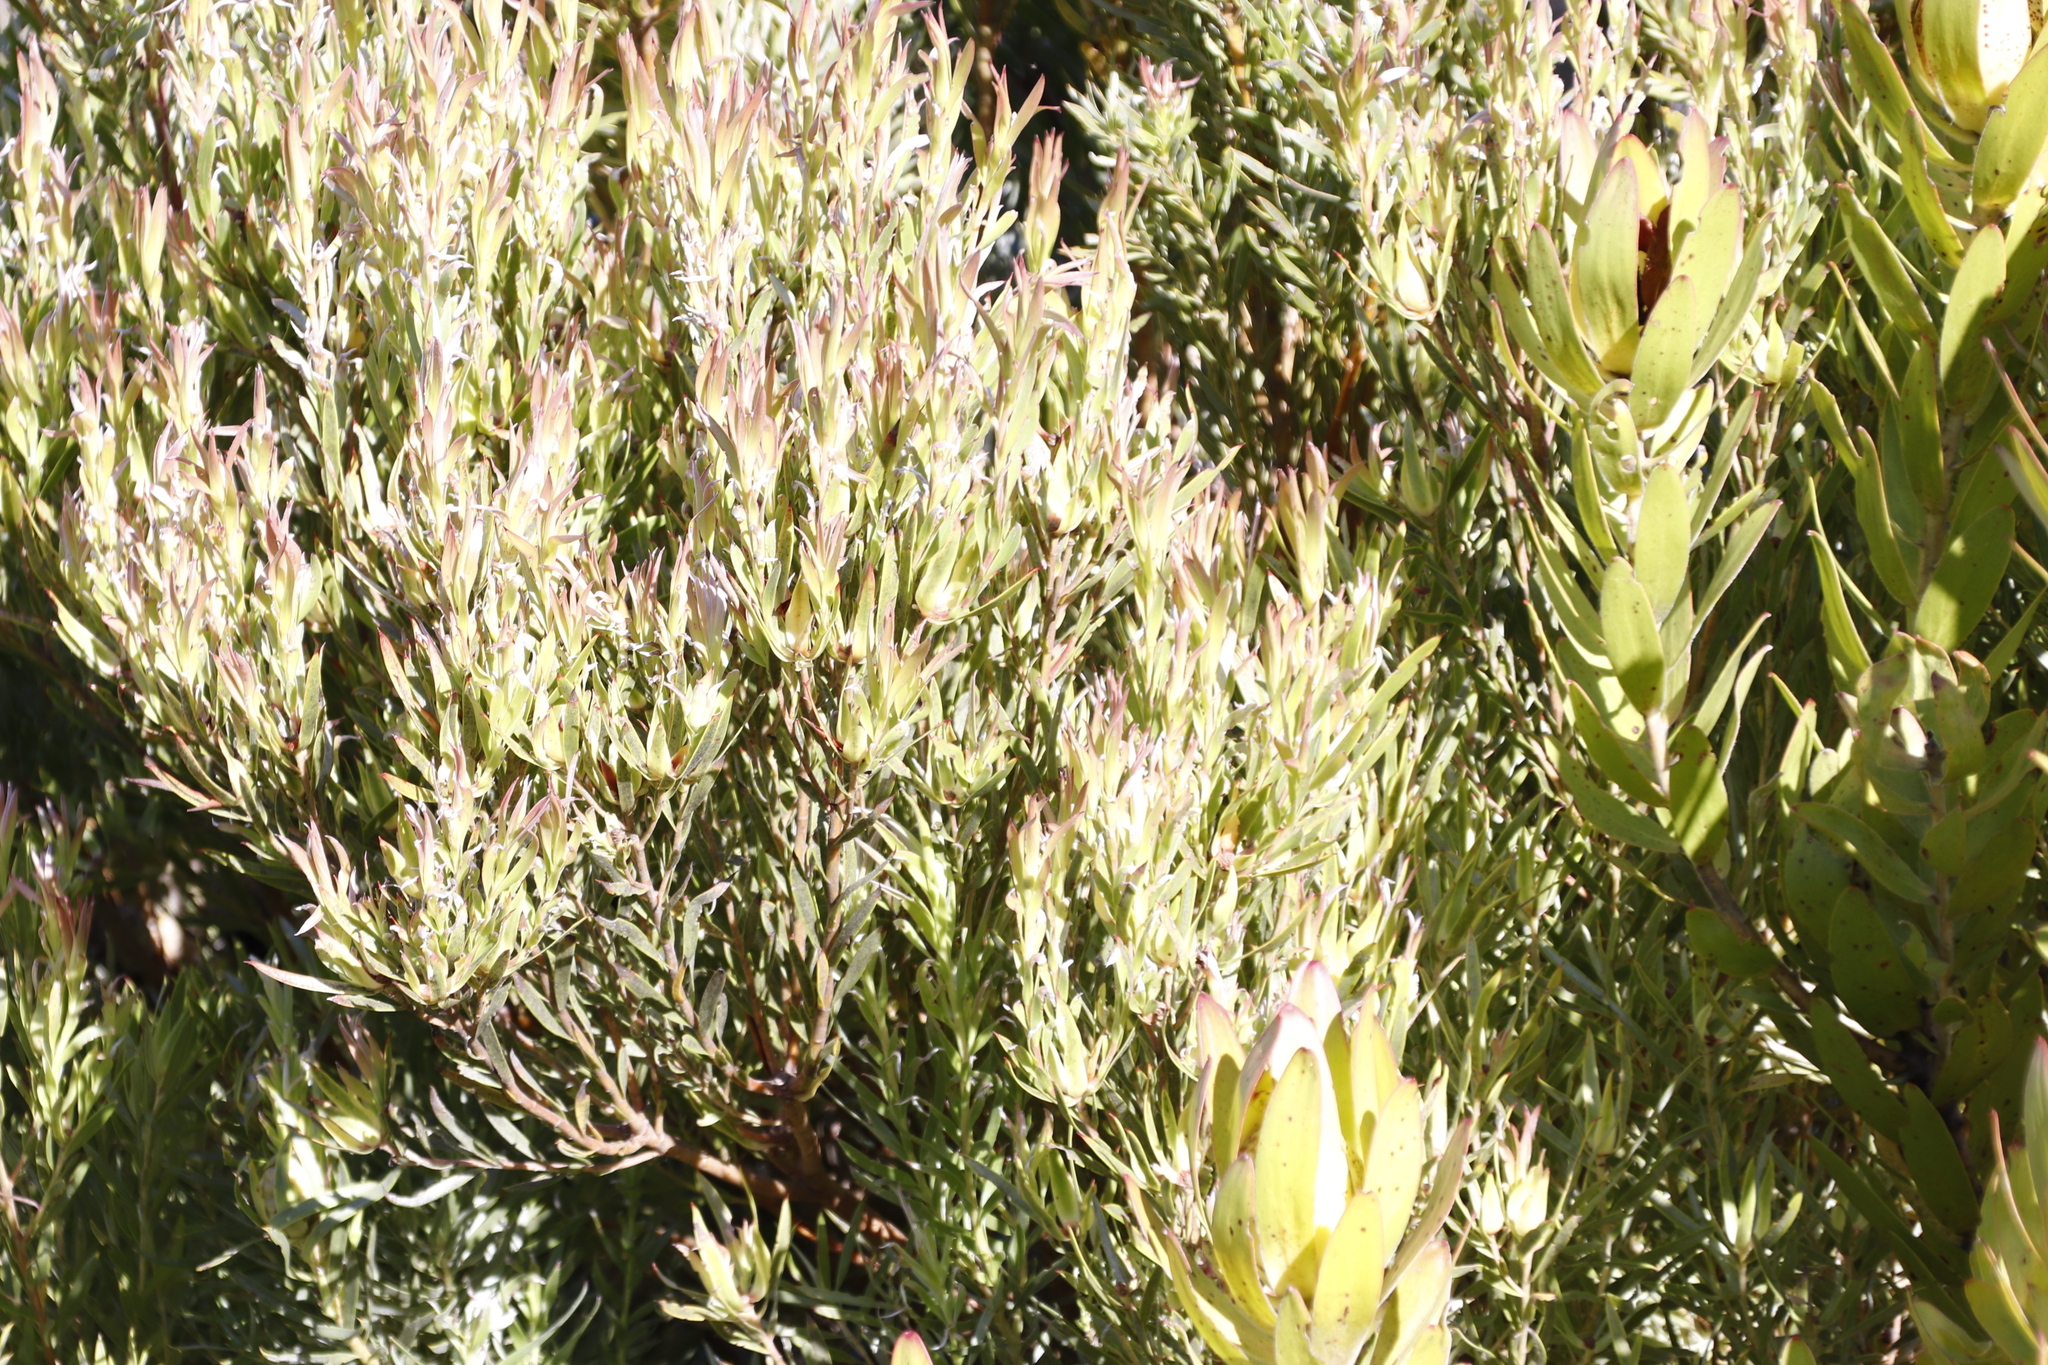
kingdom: Plantae
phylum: Tracheophyta
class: Magnoliopsida
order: Proteales
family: Proteaceae
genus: Leucadendron
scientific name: Leucadendron laureolum
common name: Golden sunshinebush
